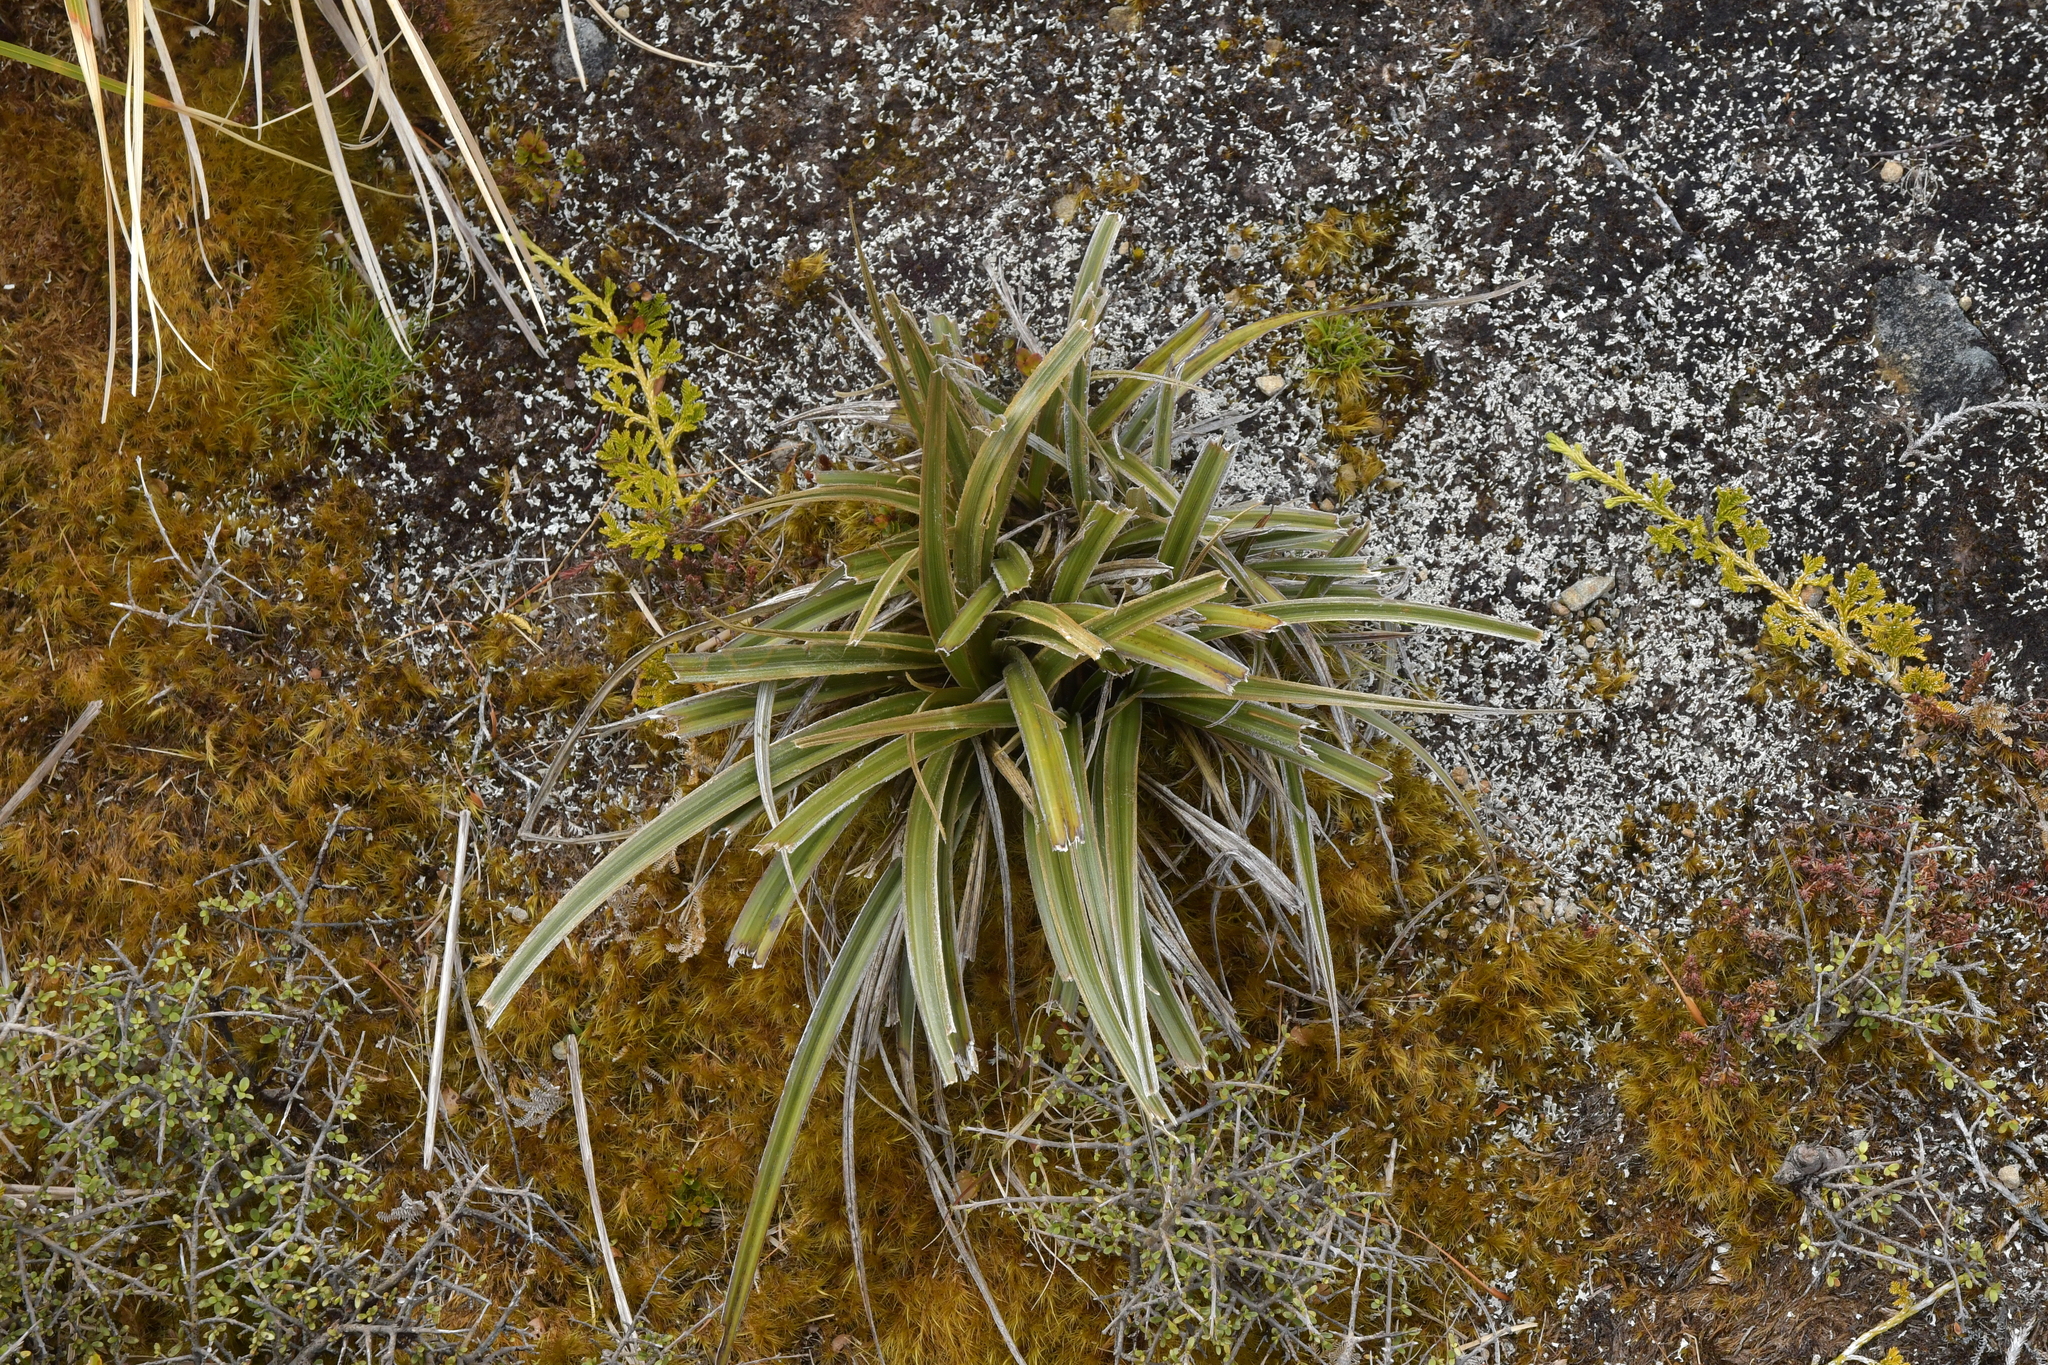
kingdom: Plantae
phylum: Tracheophyta
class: Liliopsida
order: Asparagales
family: Asteliaceae
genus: Astelia
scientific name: Astelia nervosa
